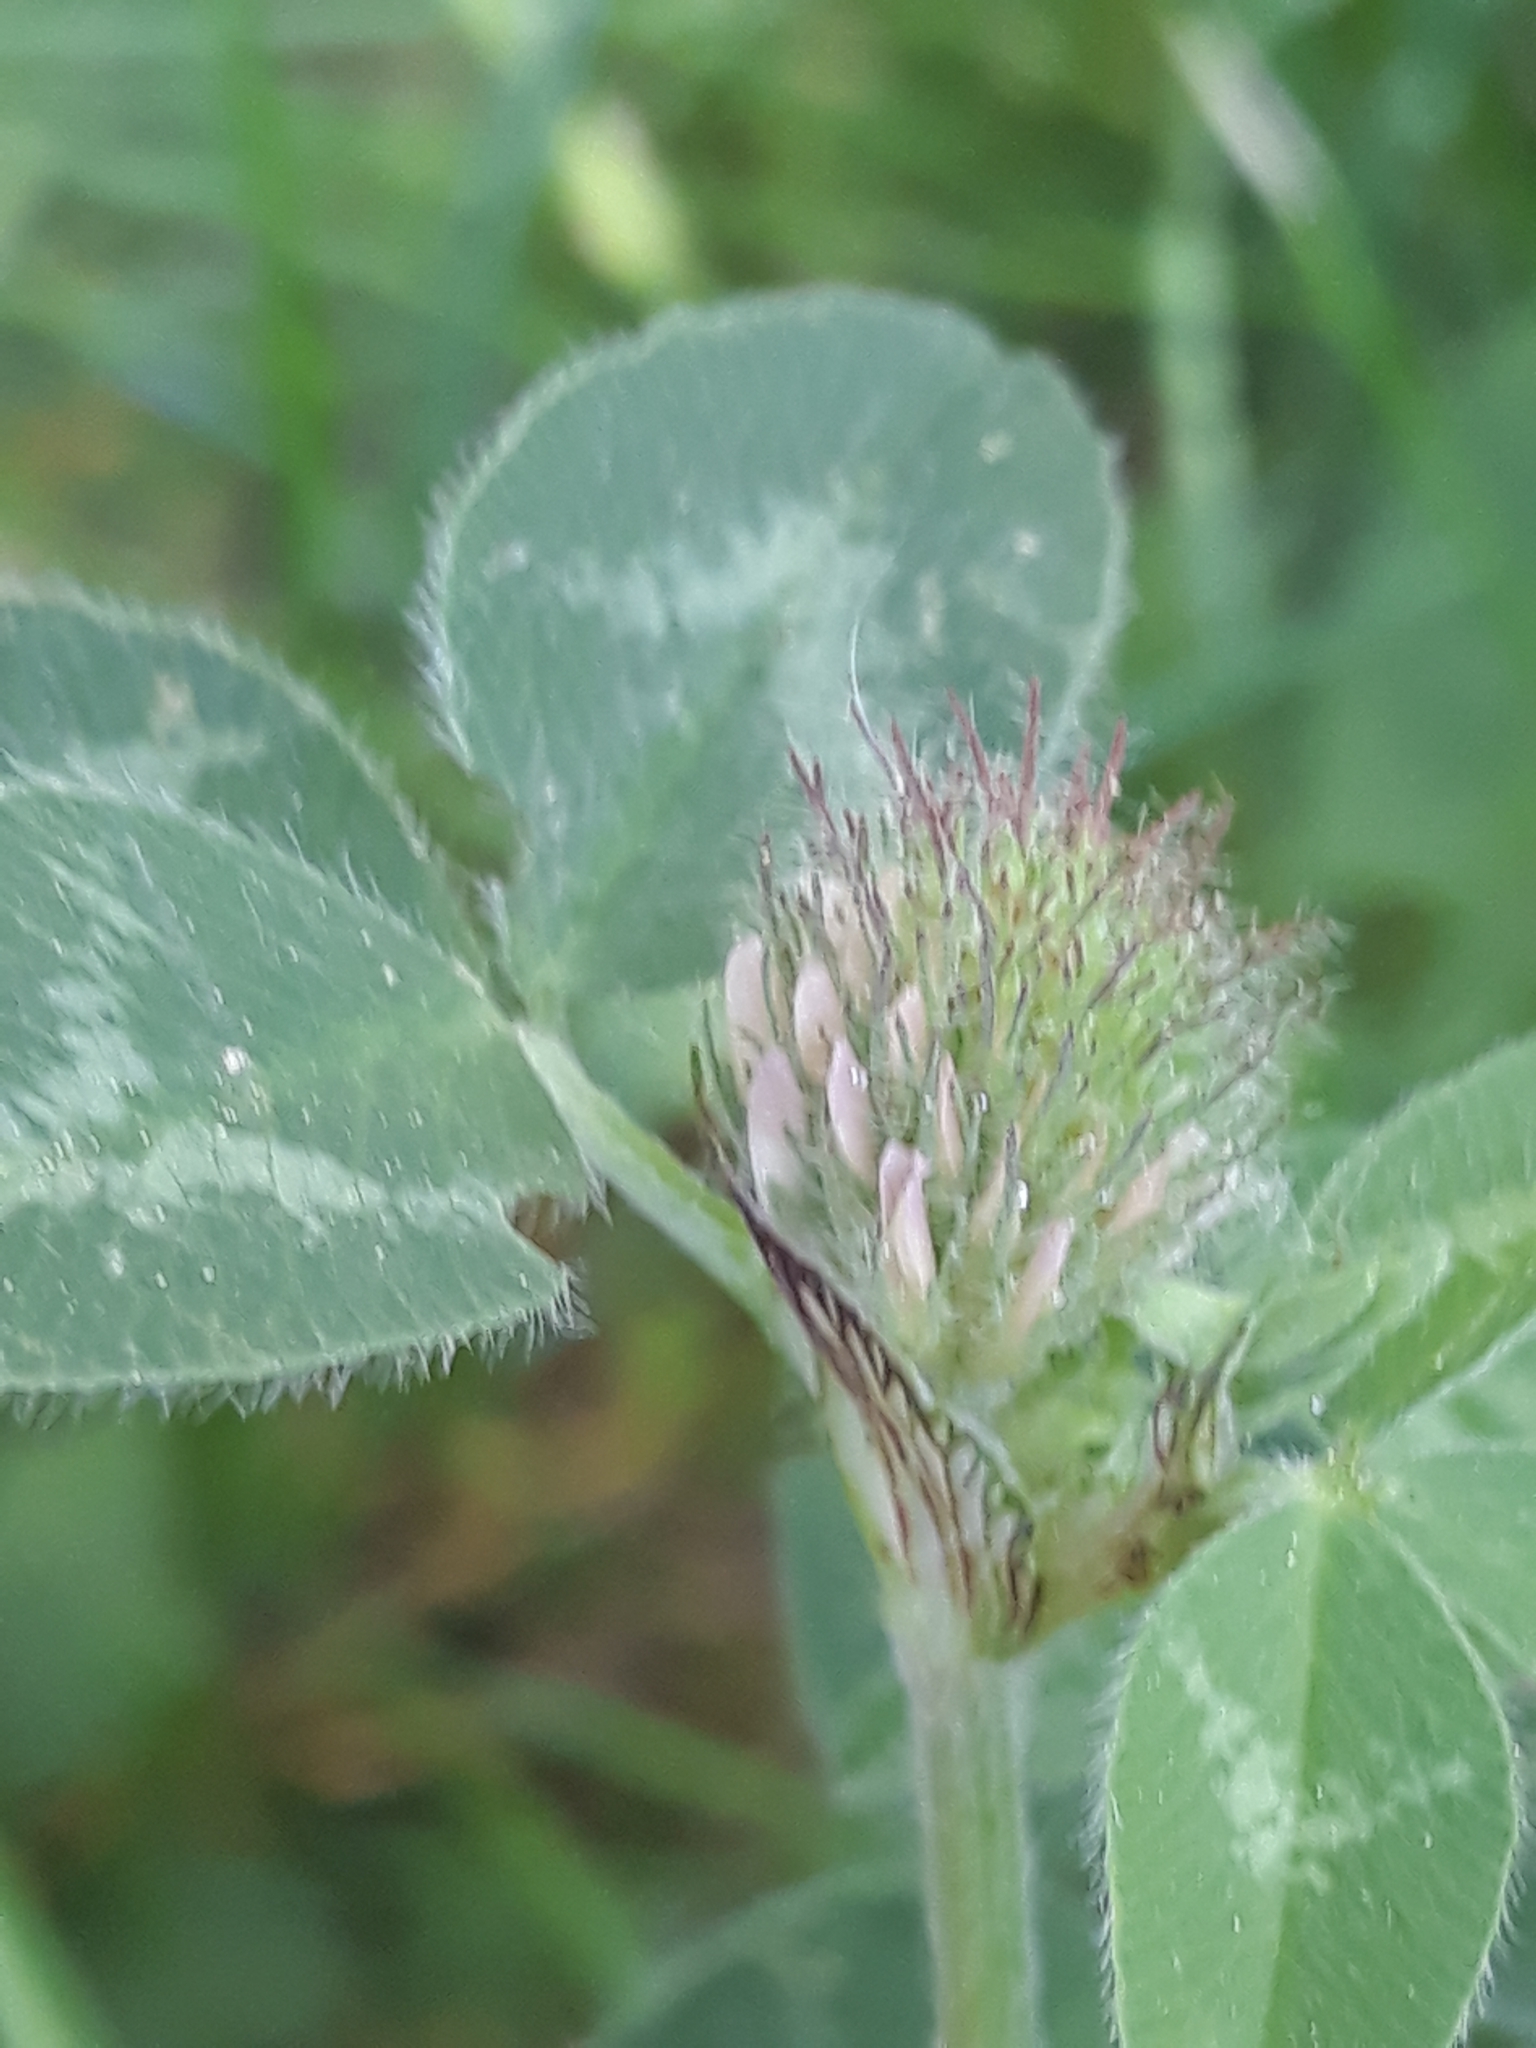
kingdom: Plantae
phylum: Tracheophyta
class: Magnoliopsida
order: Fabales
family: Fabaceae
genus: Trifolium
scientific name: Trifolium pratense
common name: Red clover
